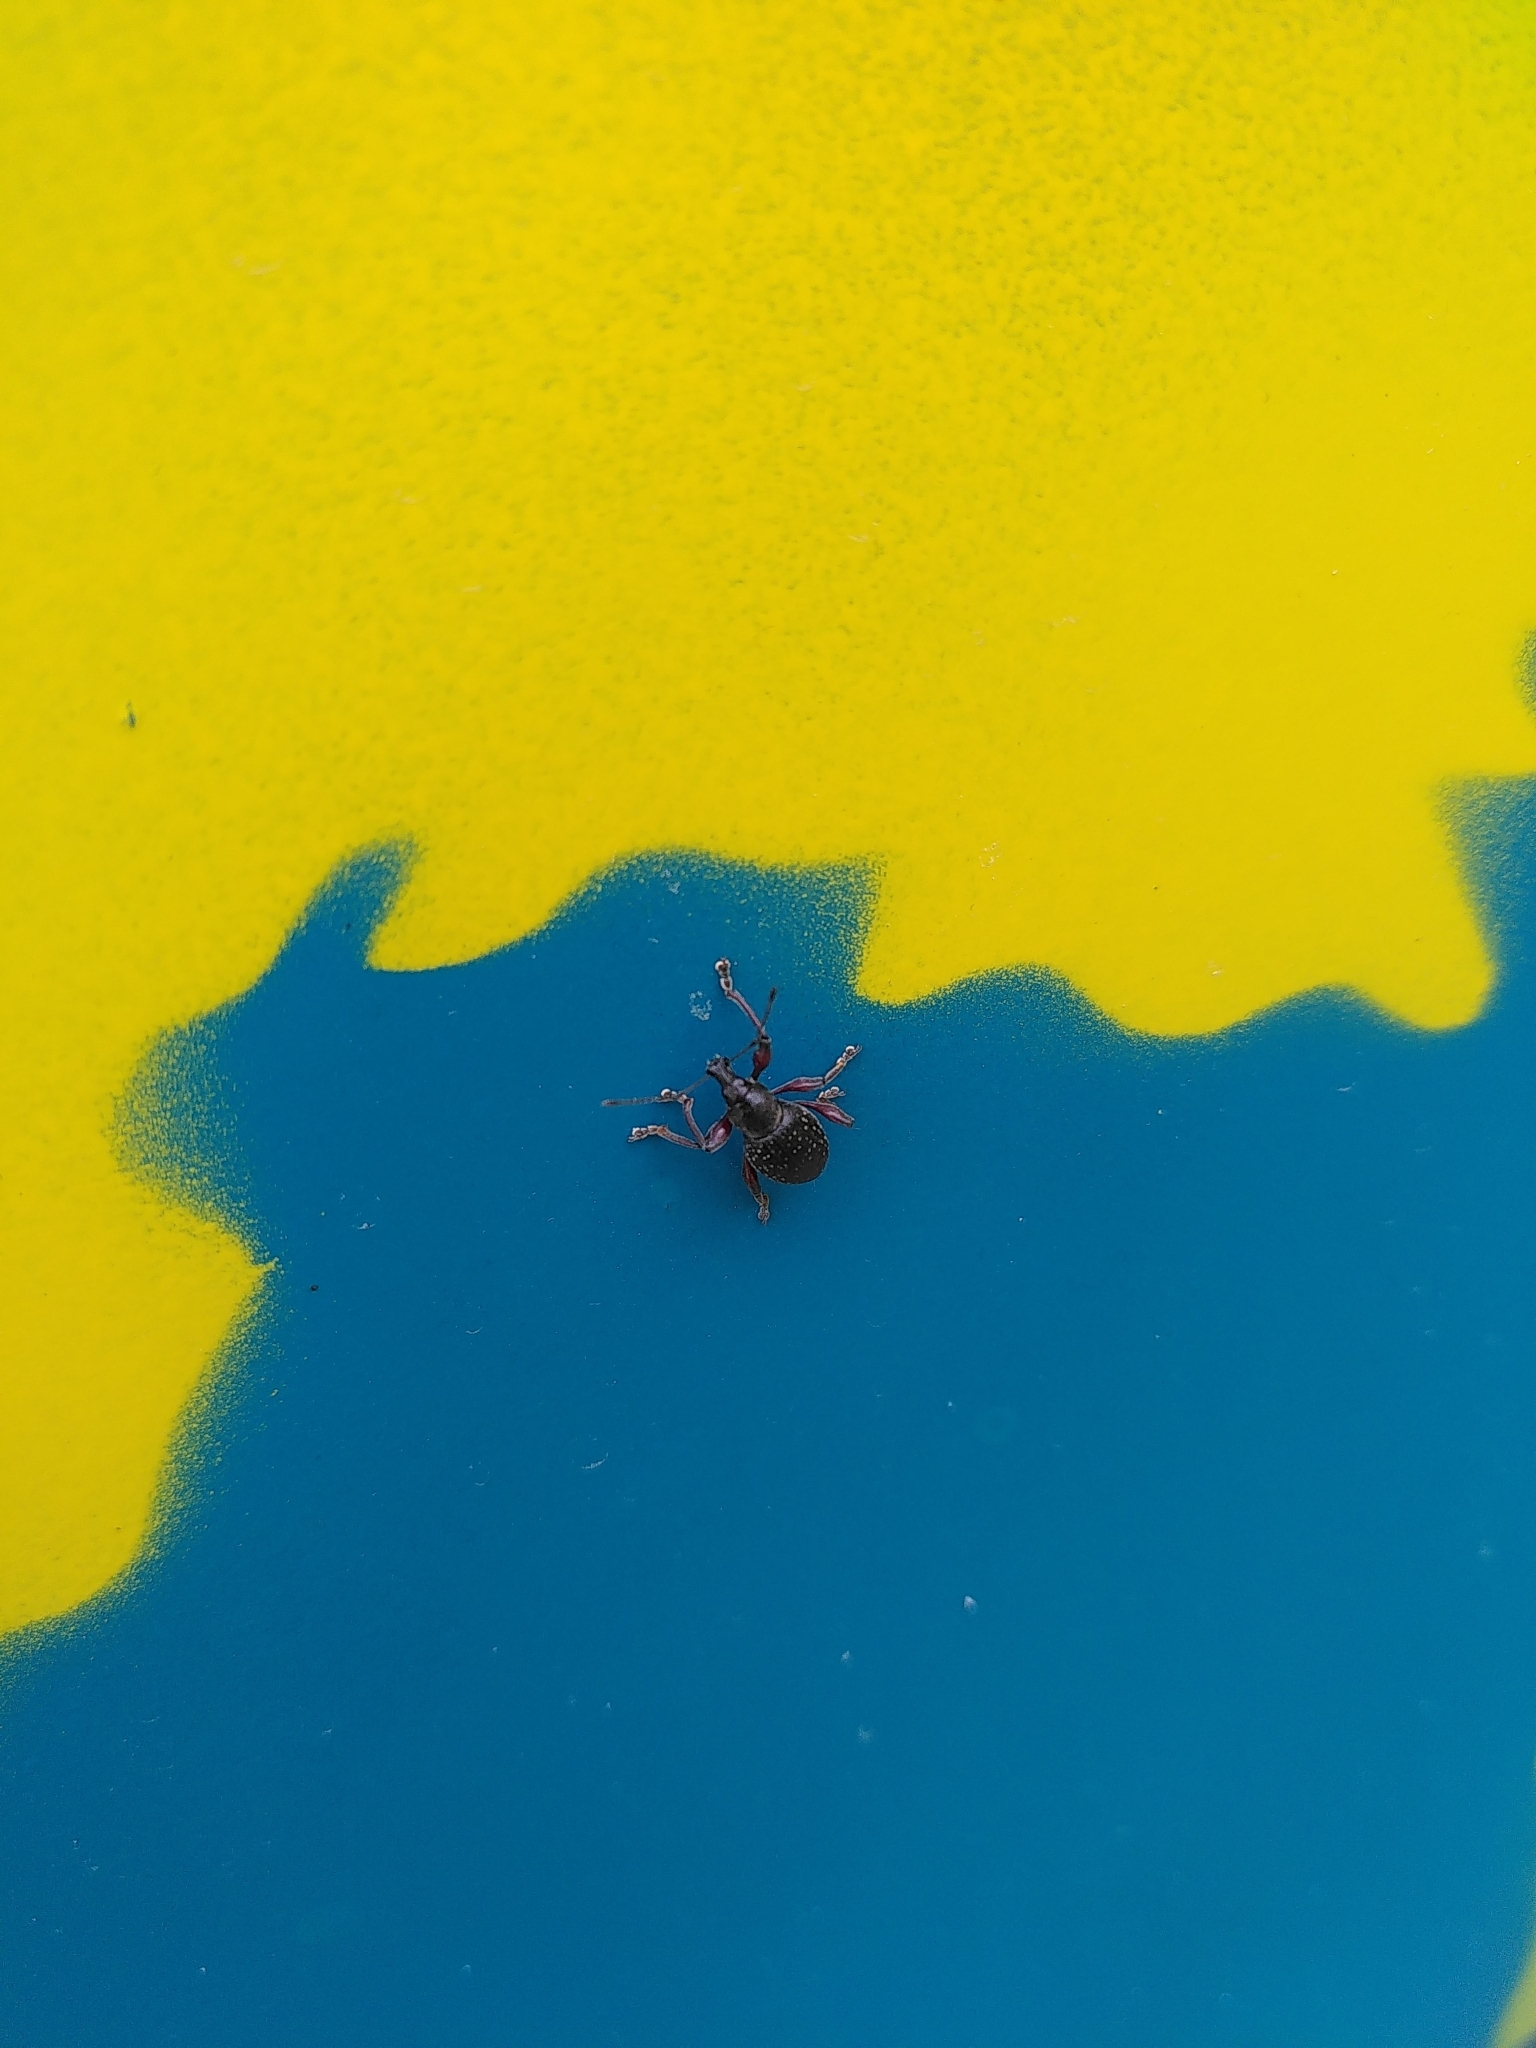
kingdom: Animalia
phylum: Arthropoda
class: Insecta
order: Coleoptera
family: Curculionidae
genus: Otiorhynchus
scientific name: Otiorhynchus clavipes
